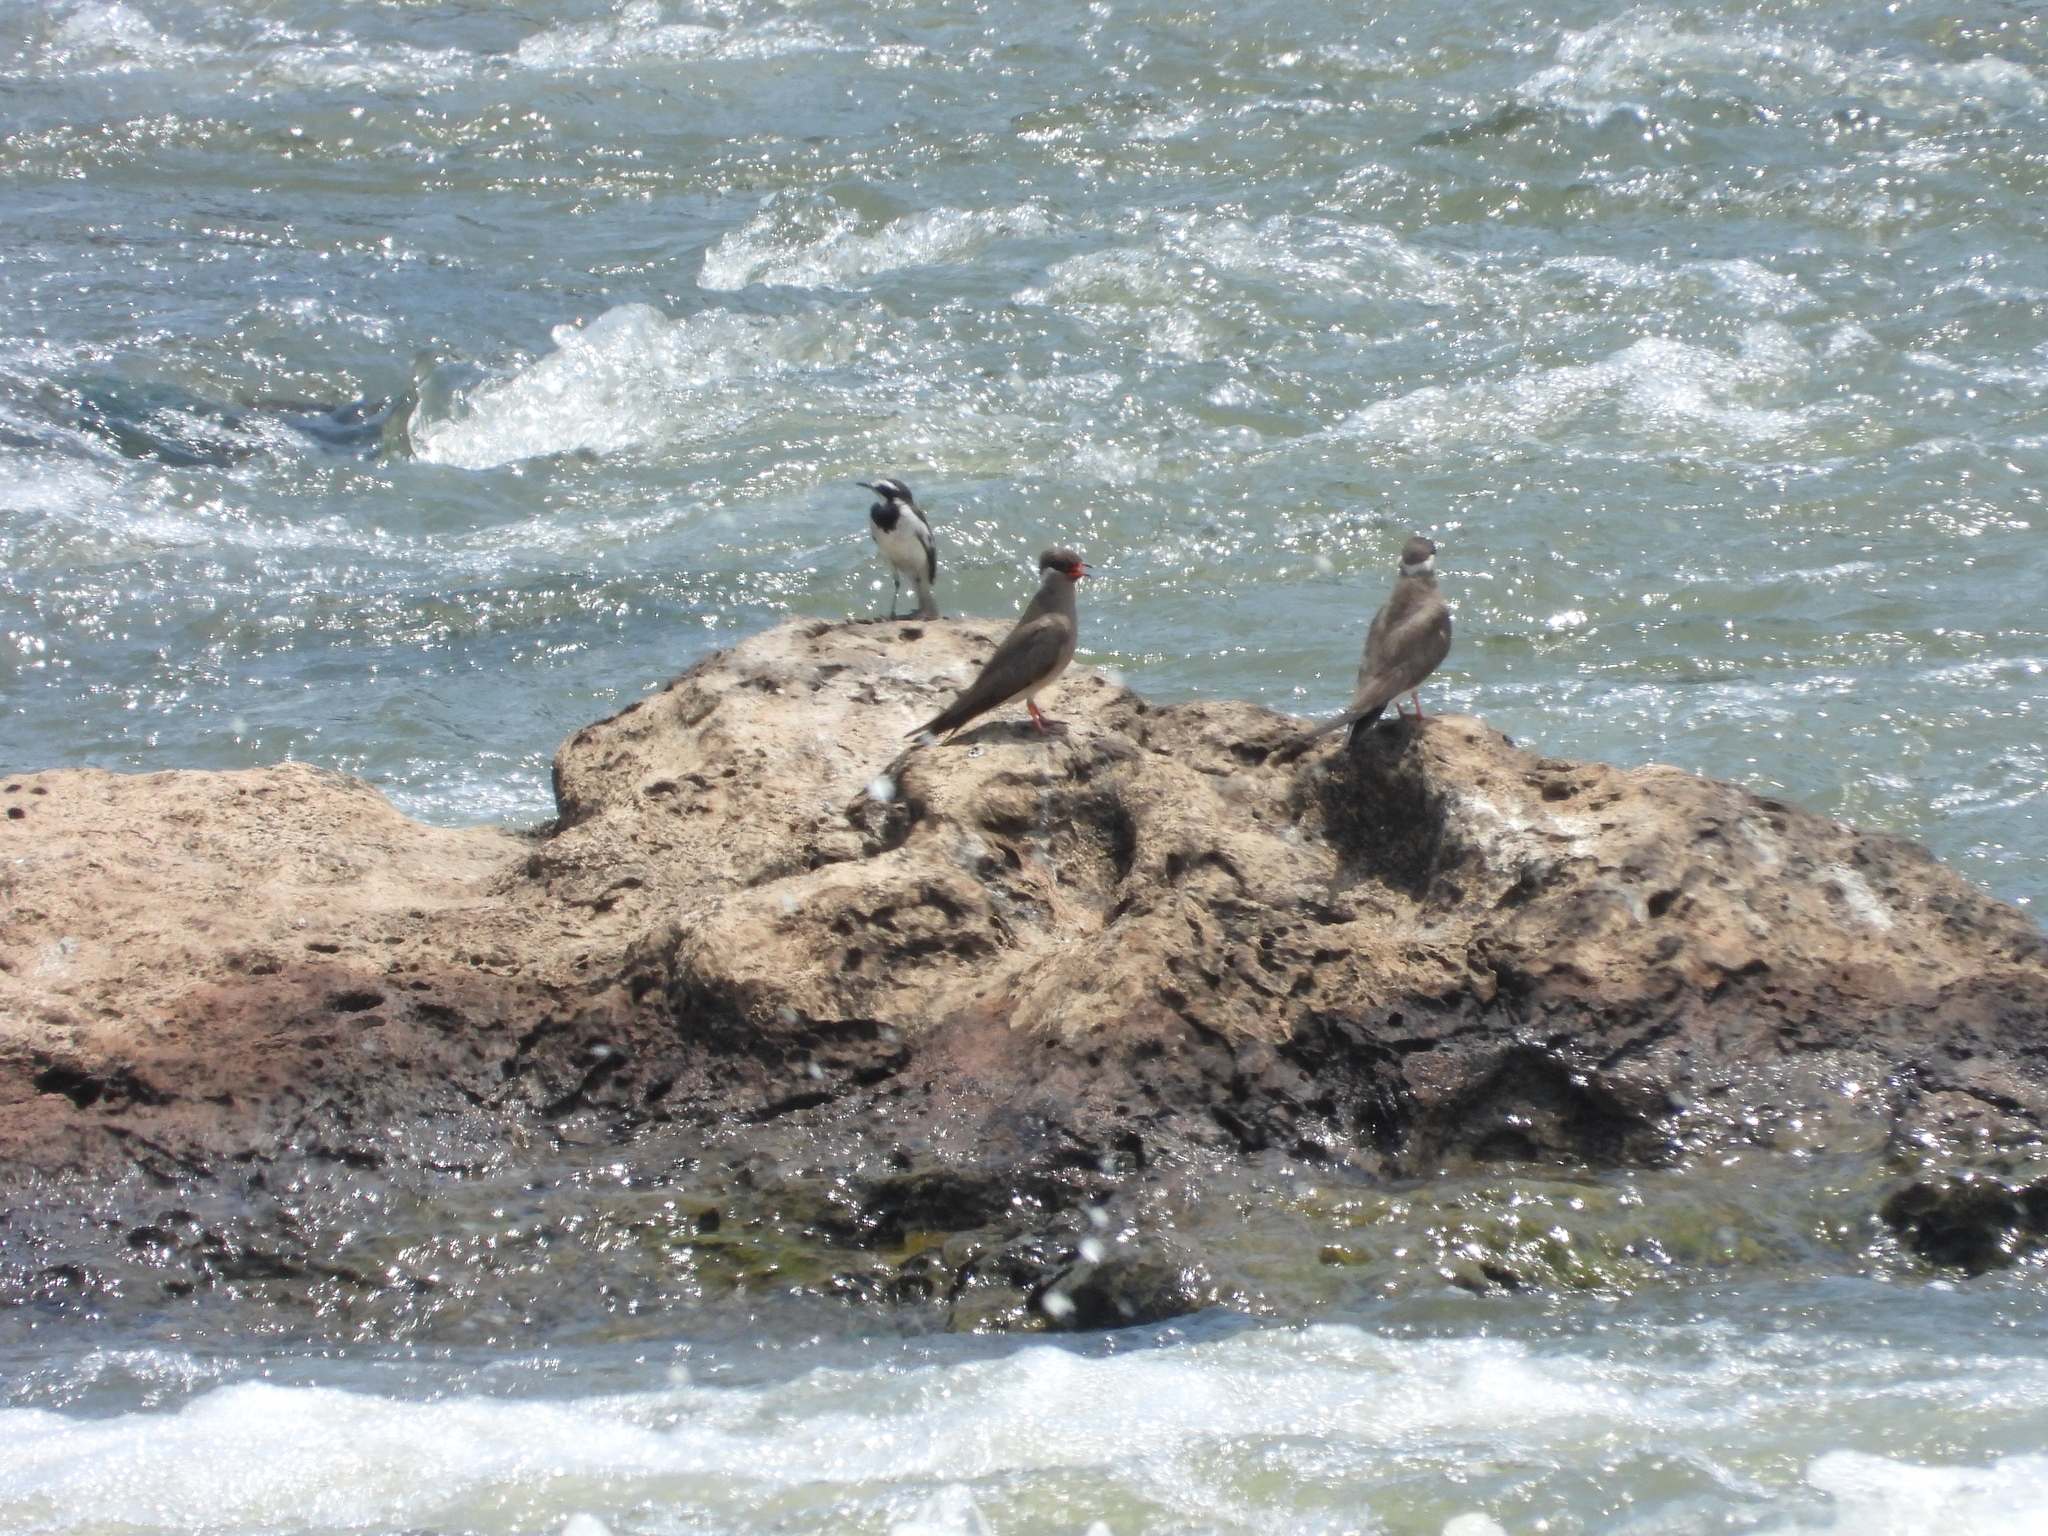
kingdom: Animalia
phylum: Chordata
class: Aves
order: Charadriiformes
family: Glareolidae
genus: Glareola
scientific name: Glareola nuchalis
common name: Rock pratincole
